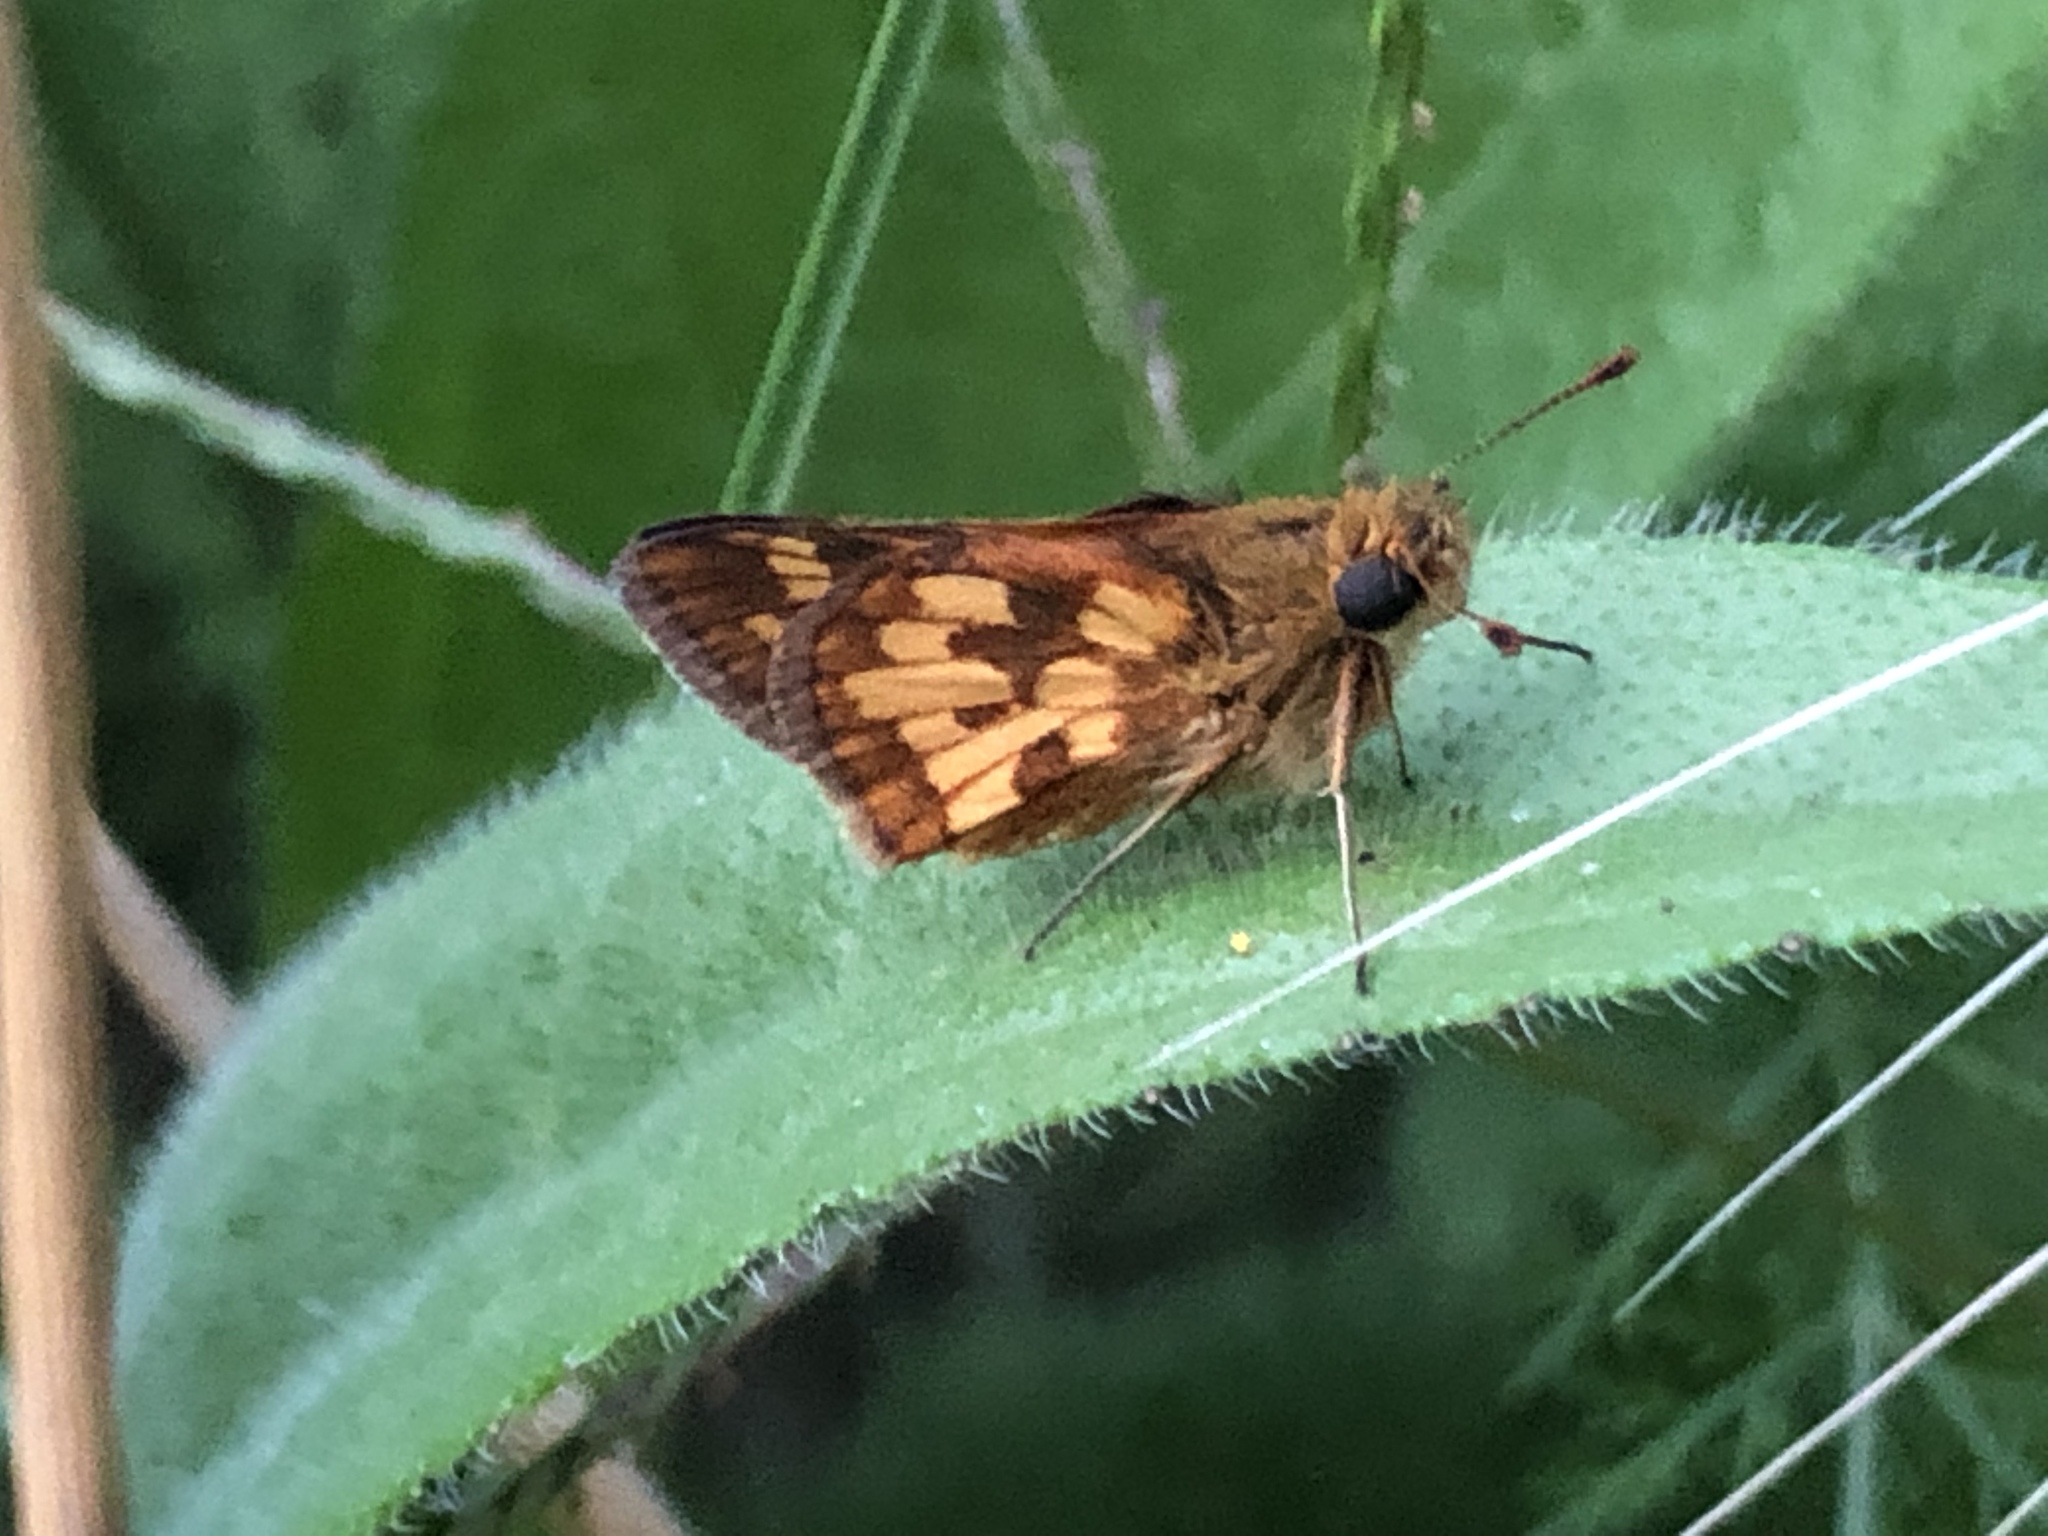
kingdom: Animalia
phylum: Arthropoda
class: Insecta
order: Lepidoptera
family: Hesperiidae
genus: Polites
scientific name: Polites coras
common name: Peck's skipper
